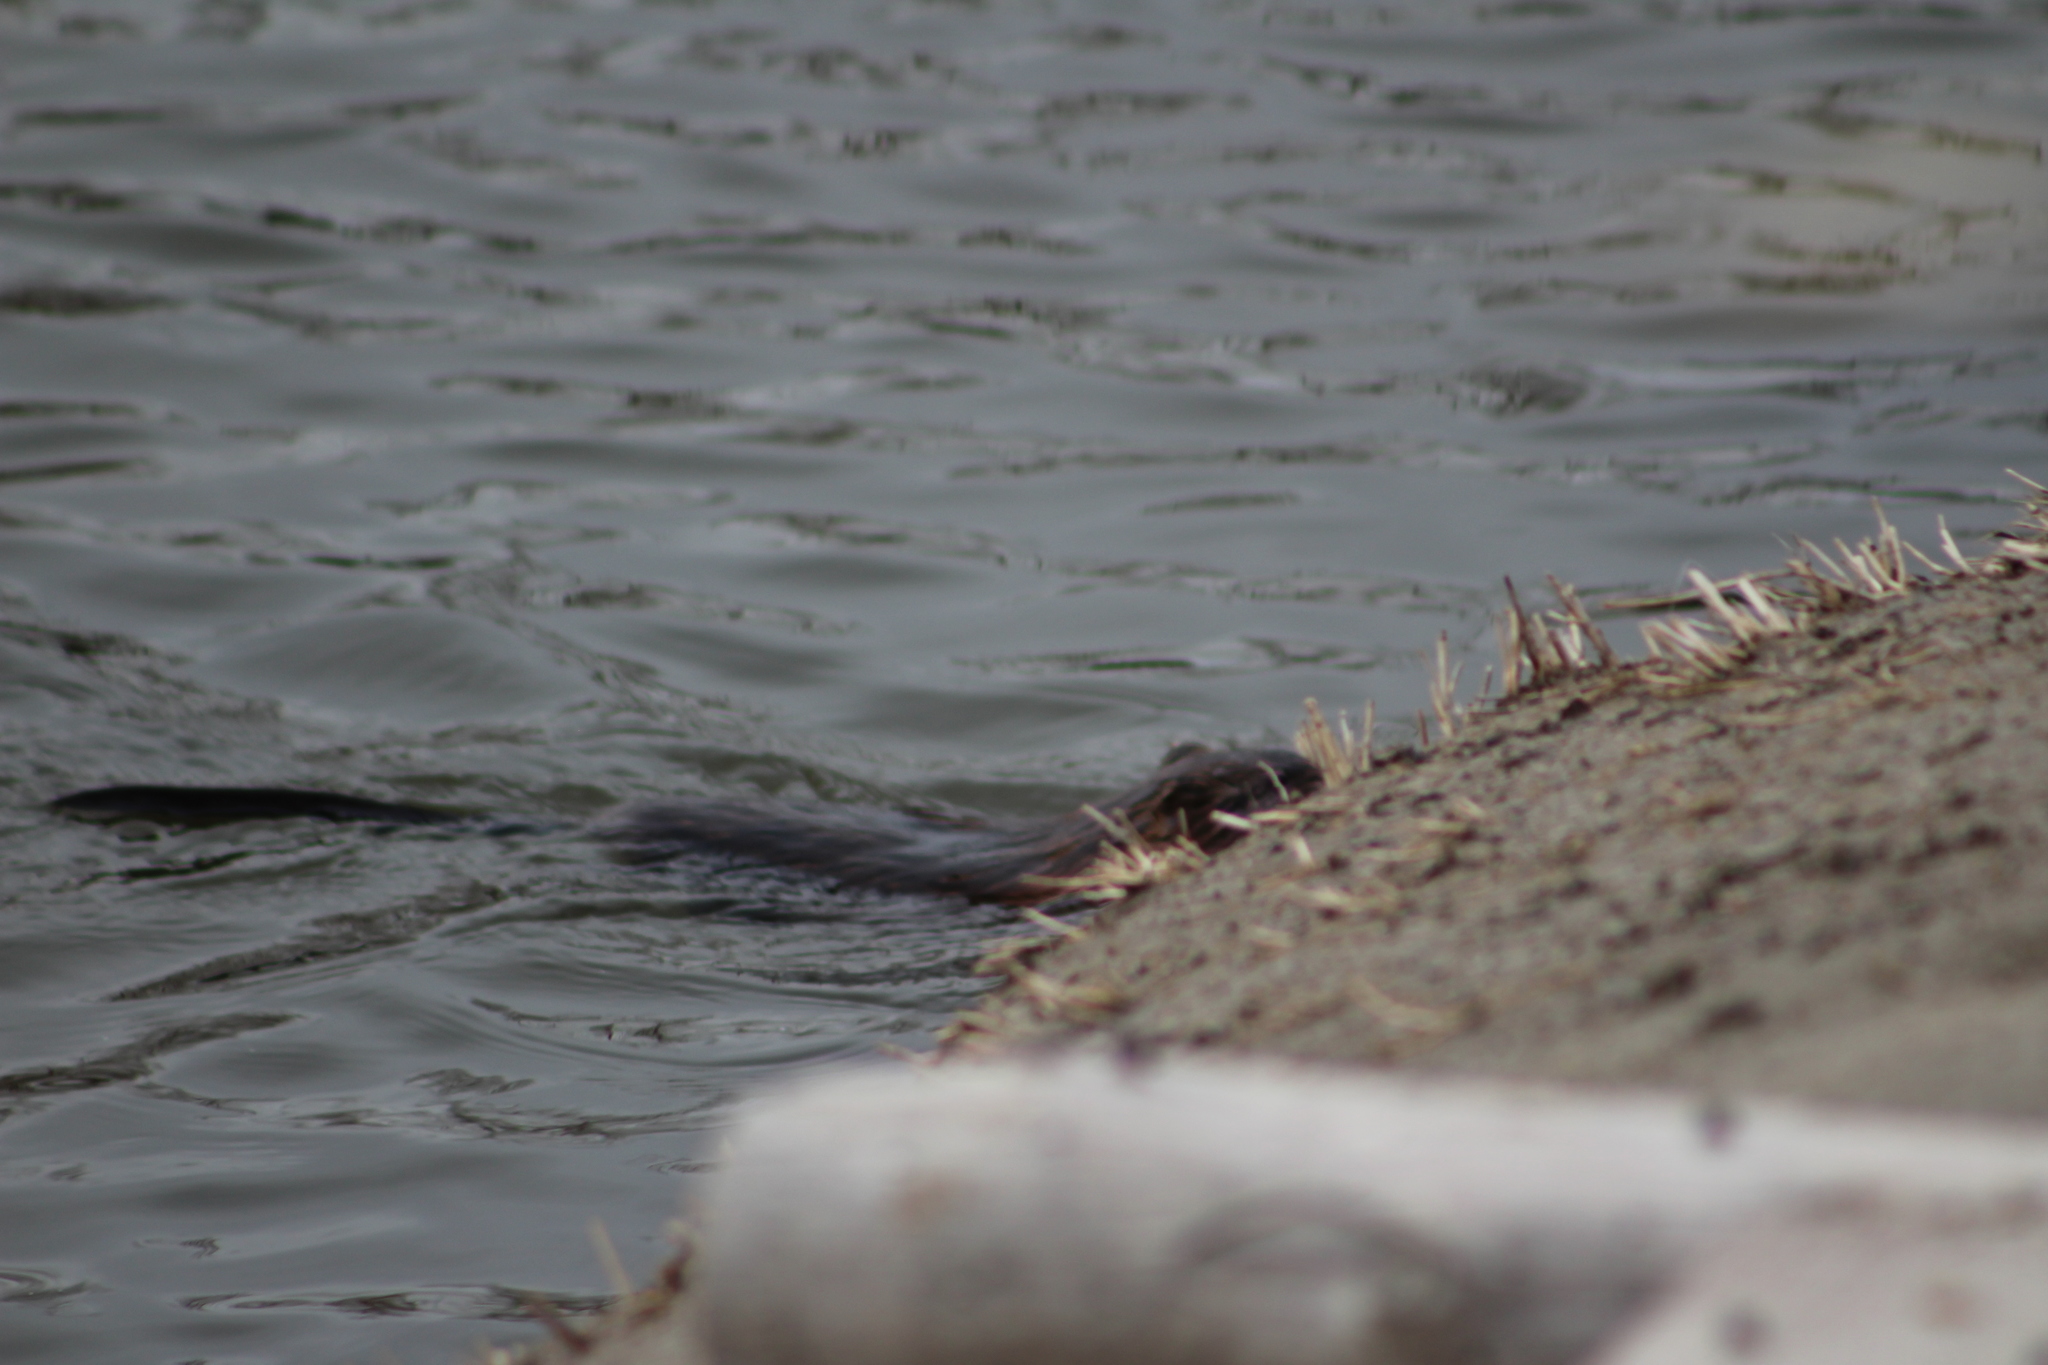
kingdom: Animalia
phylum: Chordata
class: Mammalia
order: Rodentia
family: Cricetidae
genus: Ondatra
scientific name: Ondatra zibethicus
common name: Muskrat
